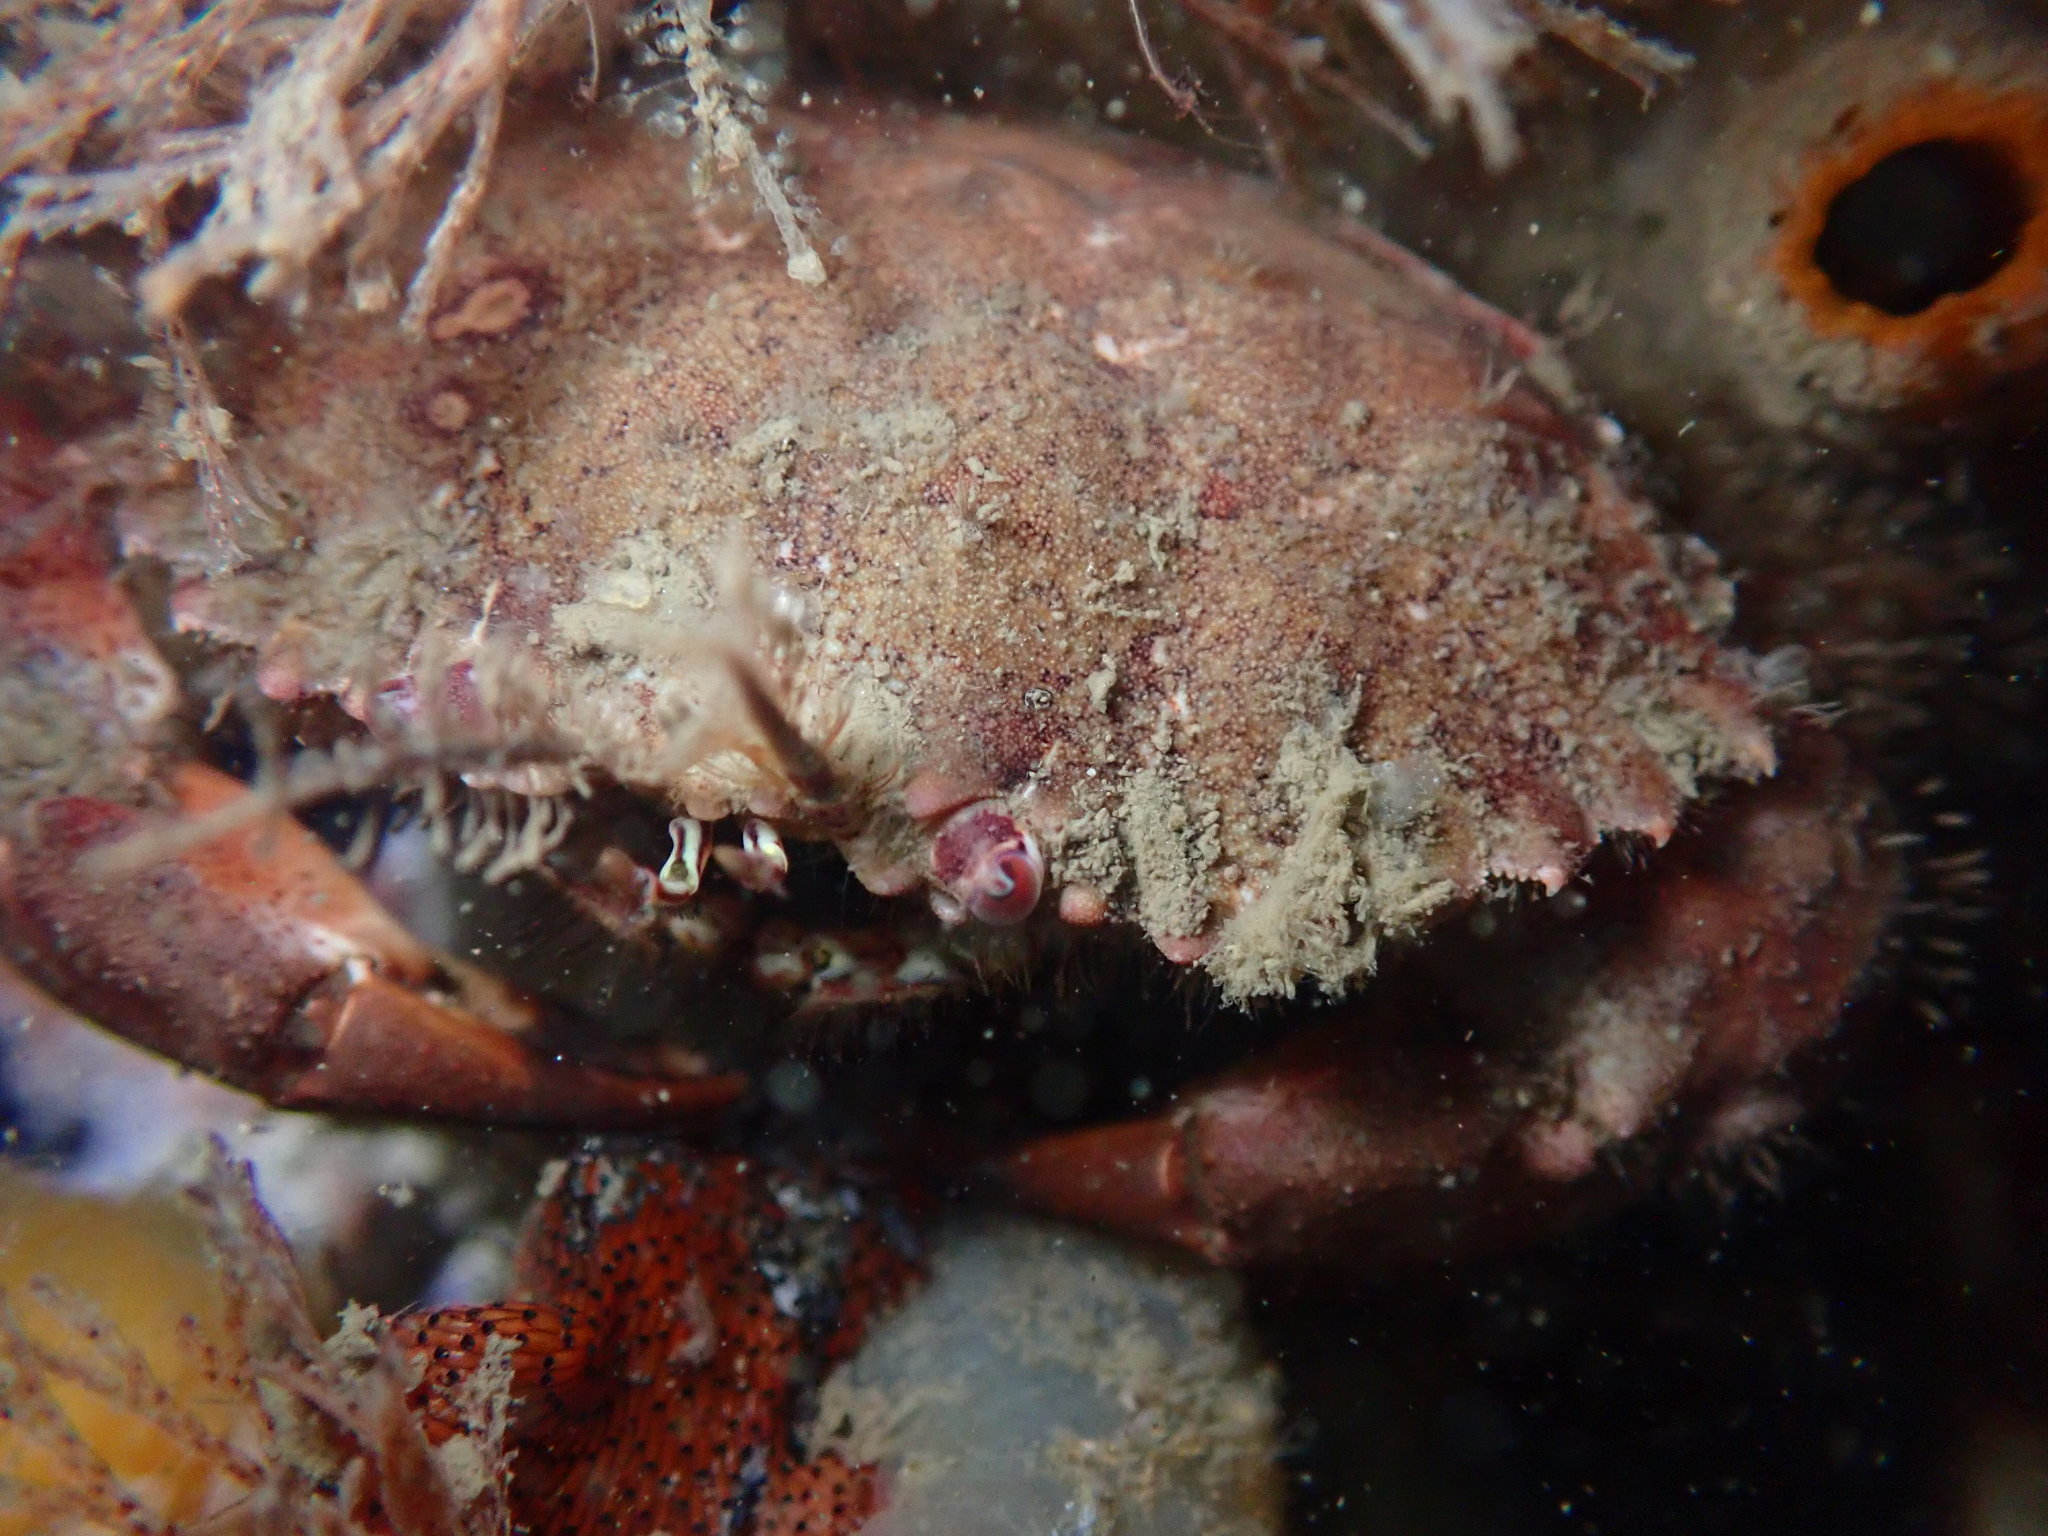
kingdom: Animalia
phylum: Arthropoda
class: Malacostraca
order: Decapoda
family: Cancridae
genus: Romaleon
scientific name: Romaleon antennarium
